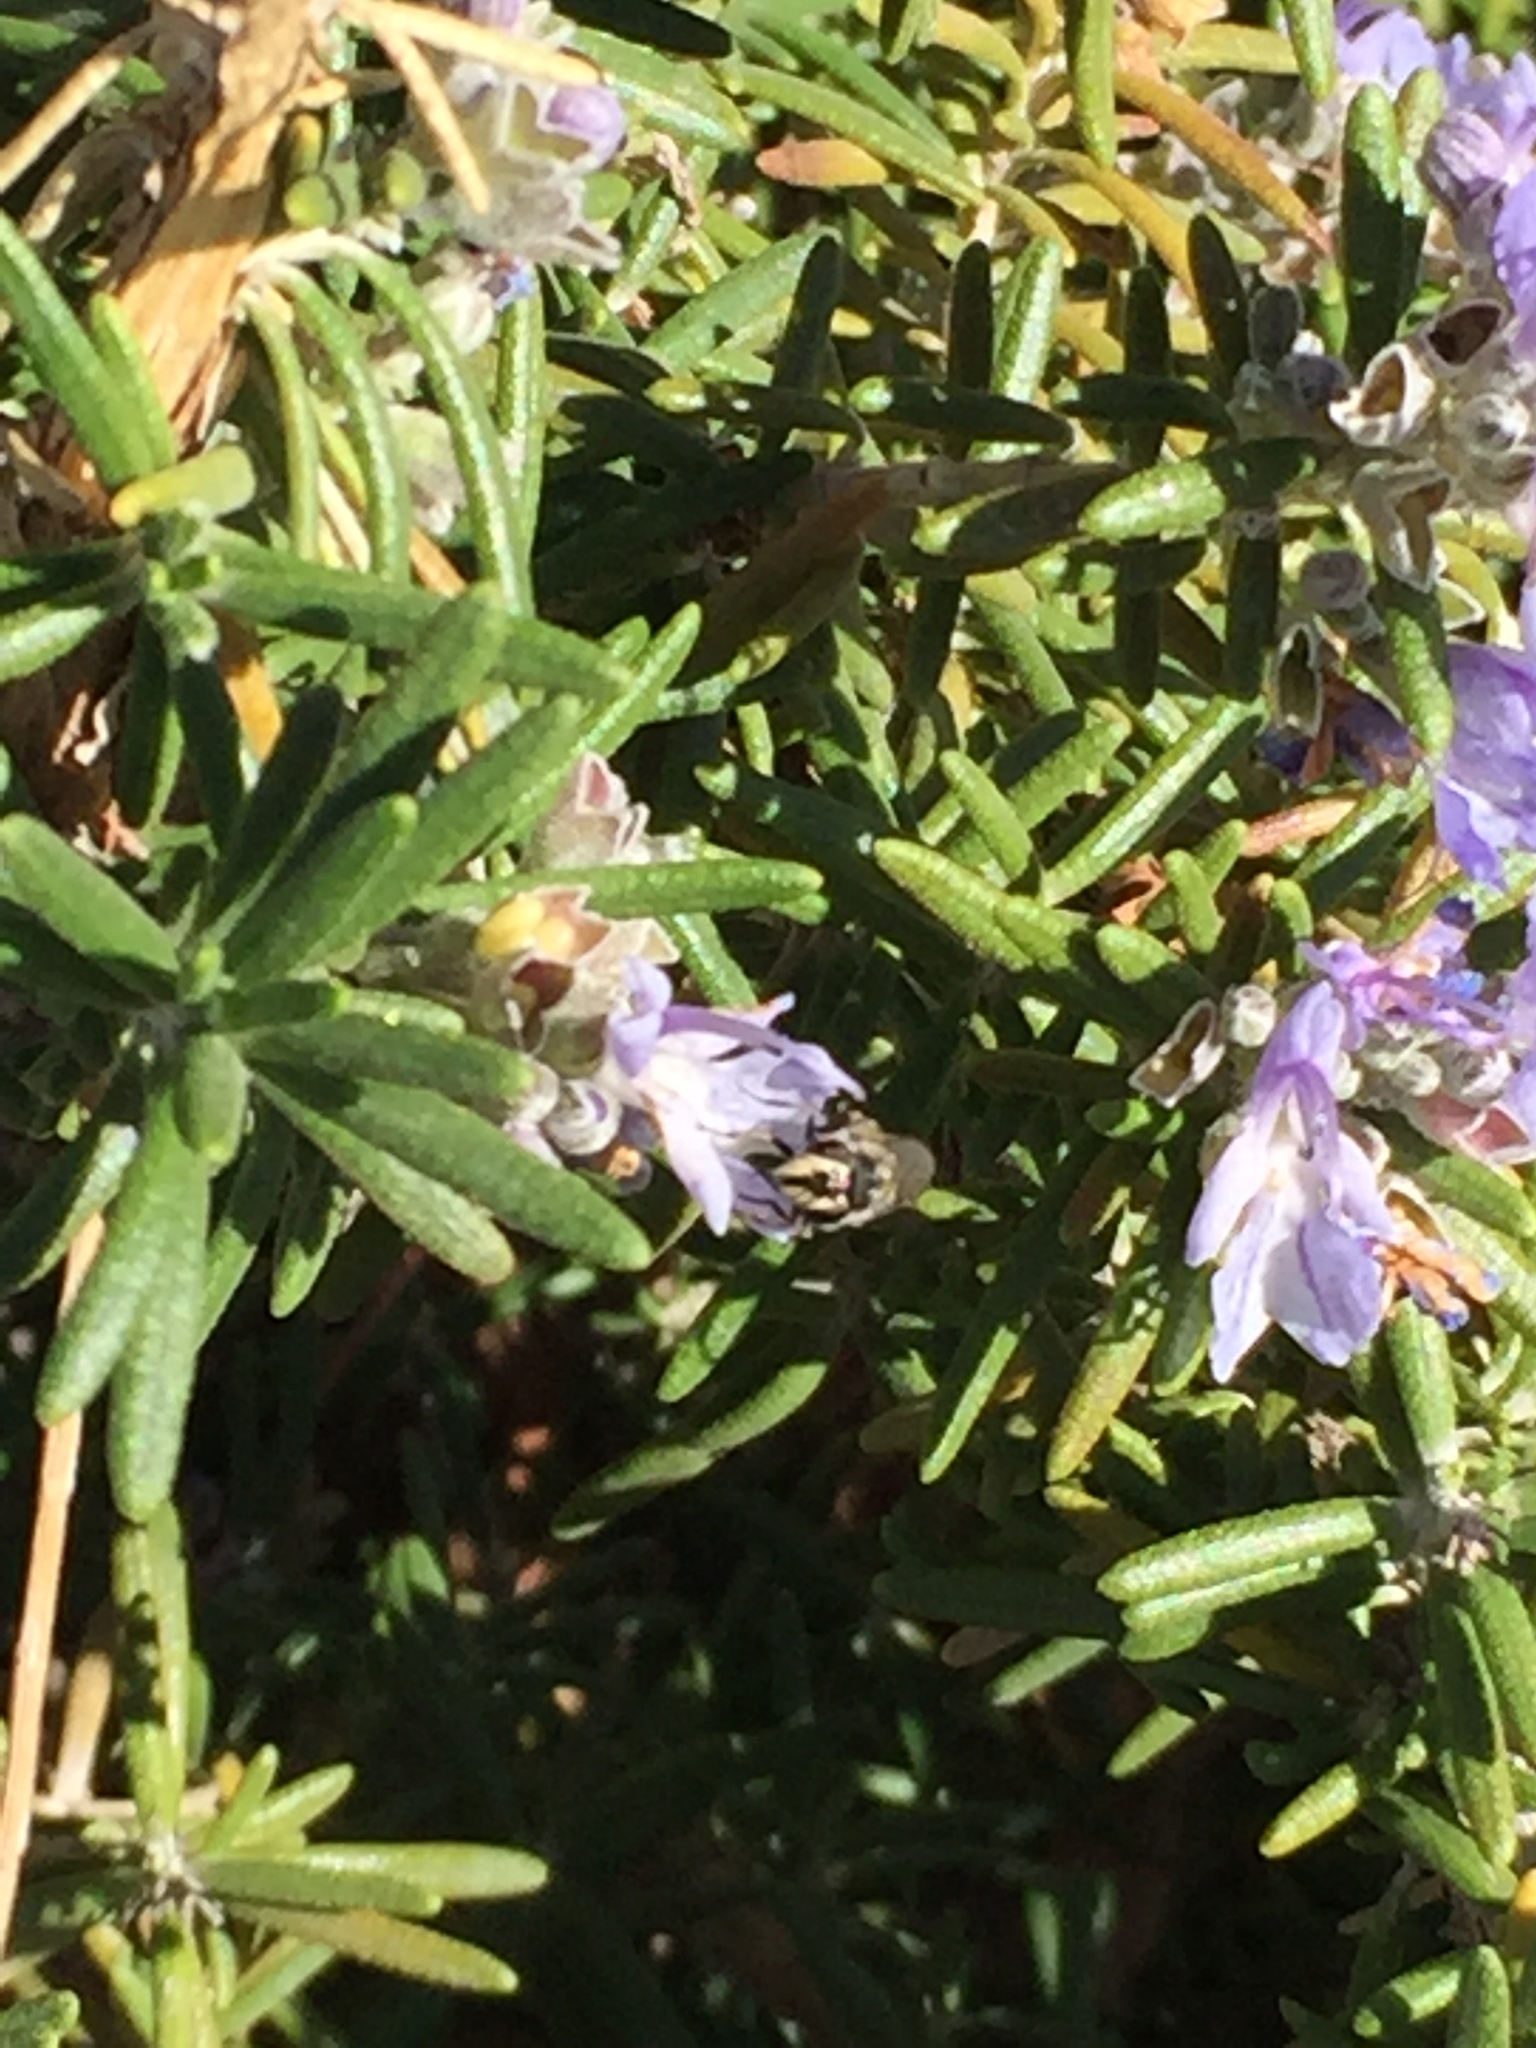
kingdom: Animalia
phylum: Arthropoda
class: Insecta
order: Diptera
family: Syrphidae
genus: Copestylum
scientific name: Copestylum
